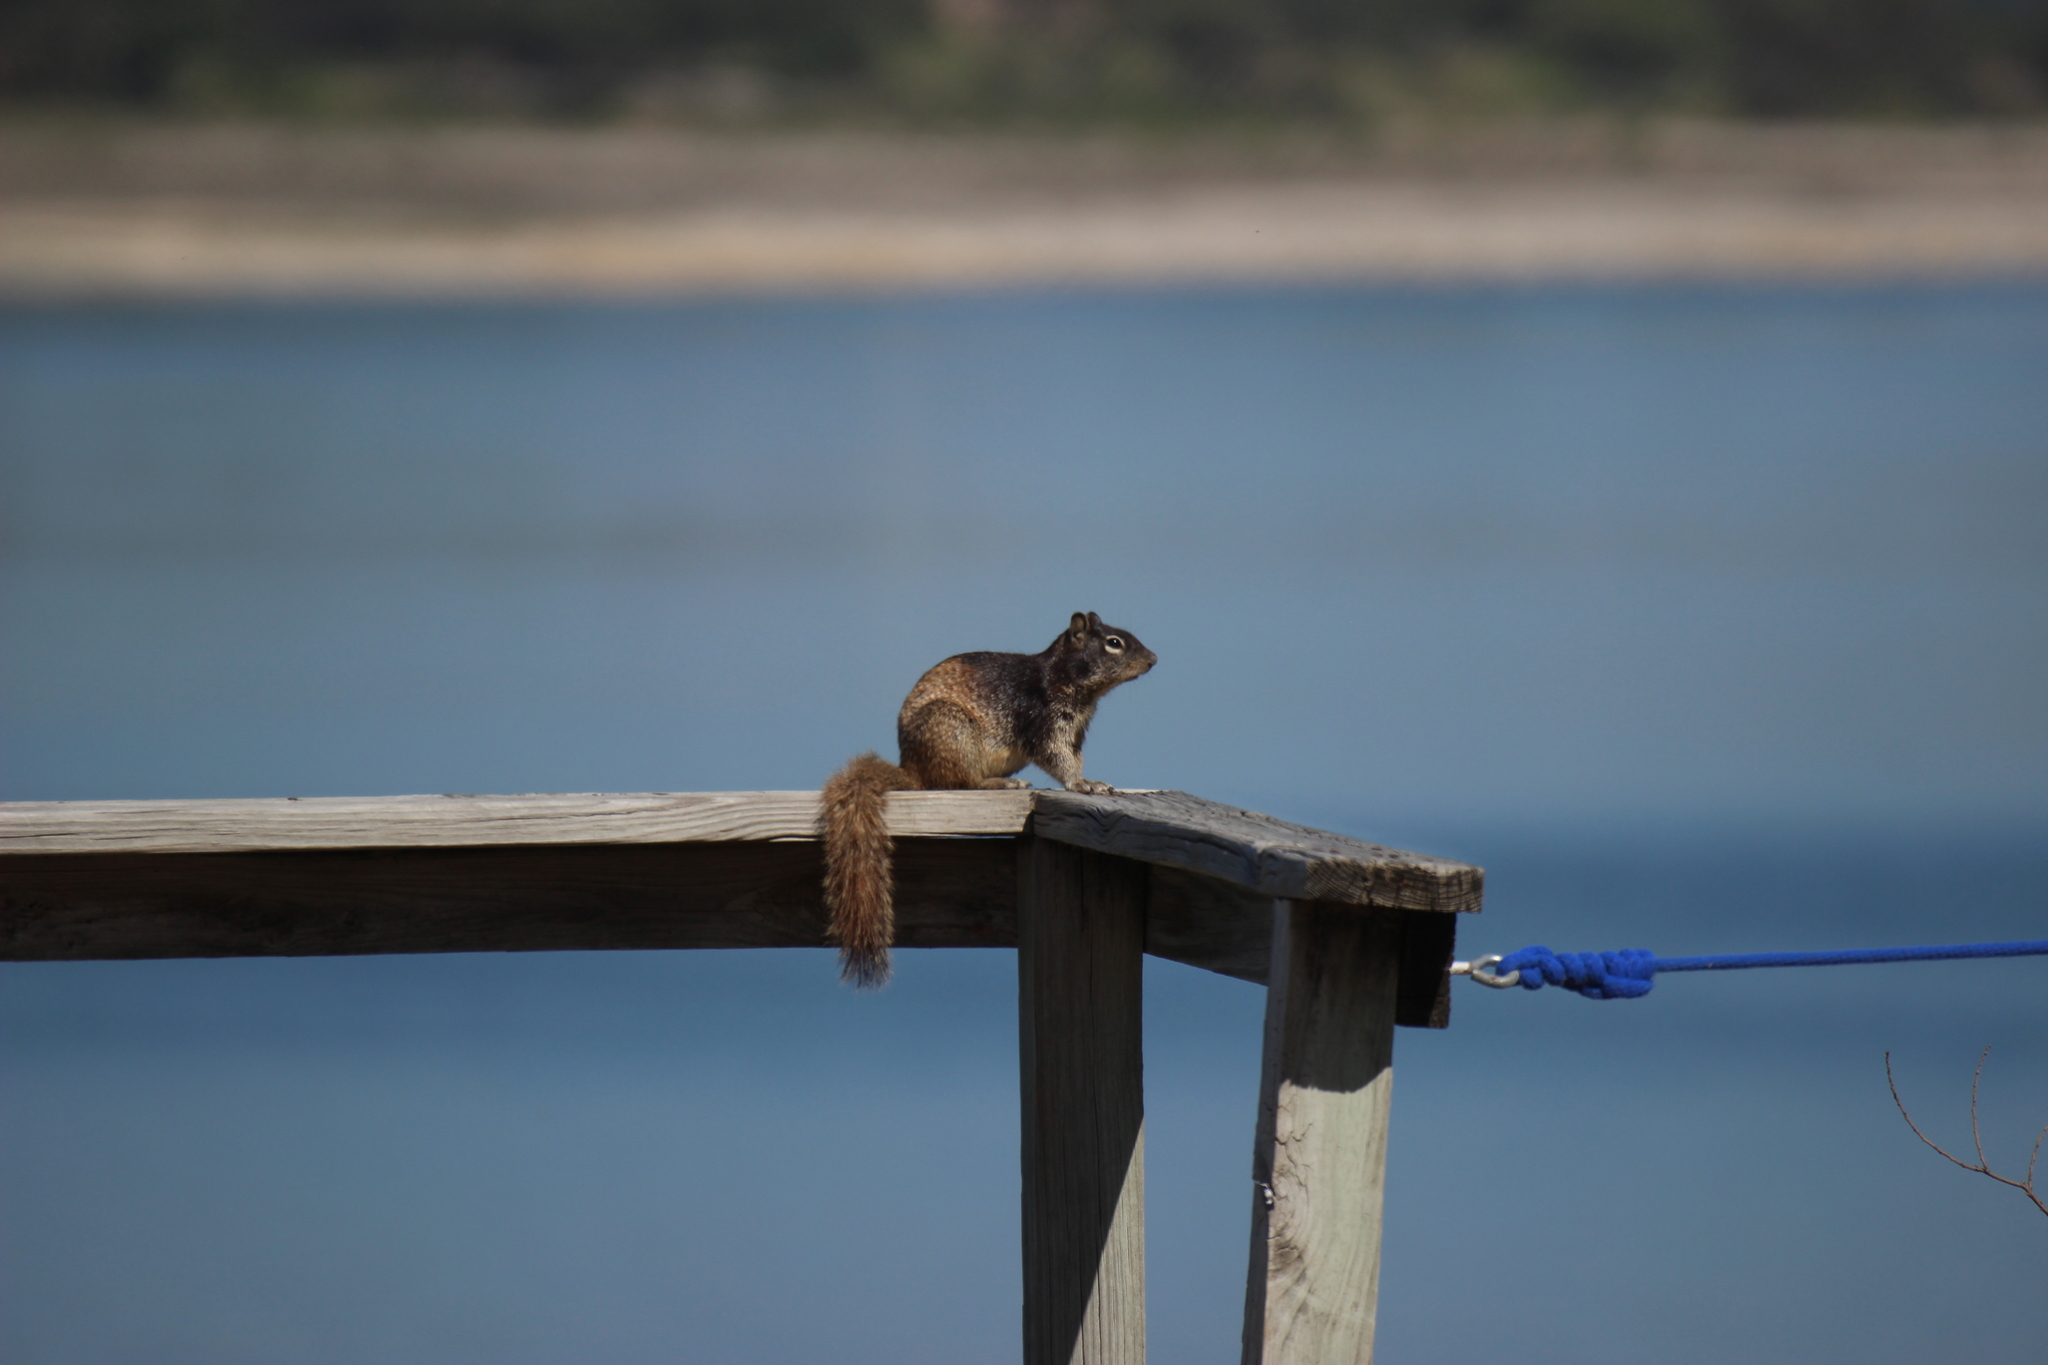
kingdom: Animalia
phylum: Chordata
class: Mammalia
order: Rodentia
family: Sciuridae
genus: Otospermophilus
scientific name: Otospermophilus variegatus
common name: Rock squirrel
